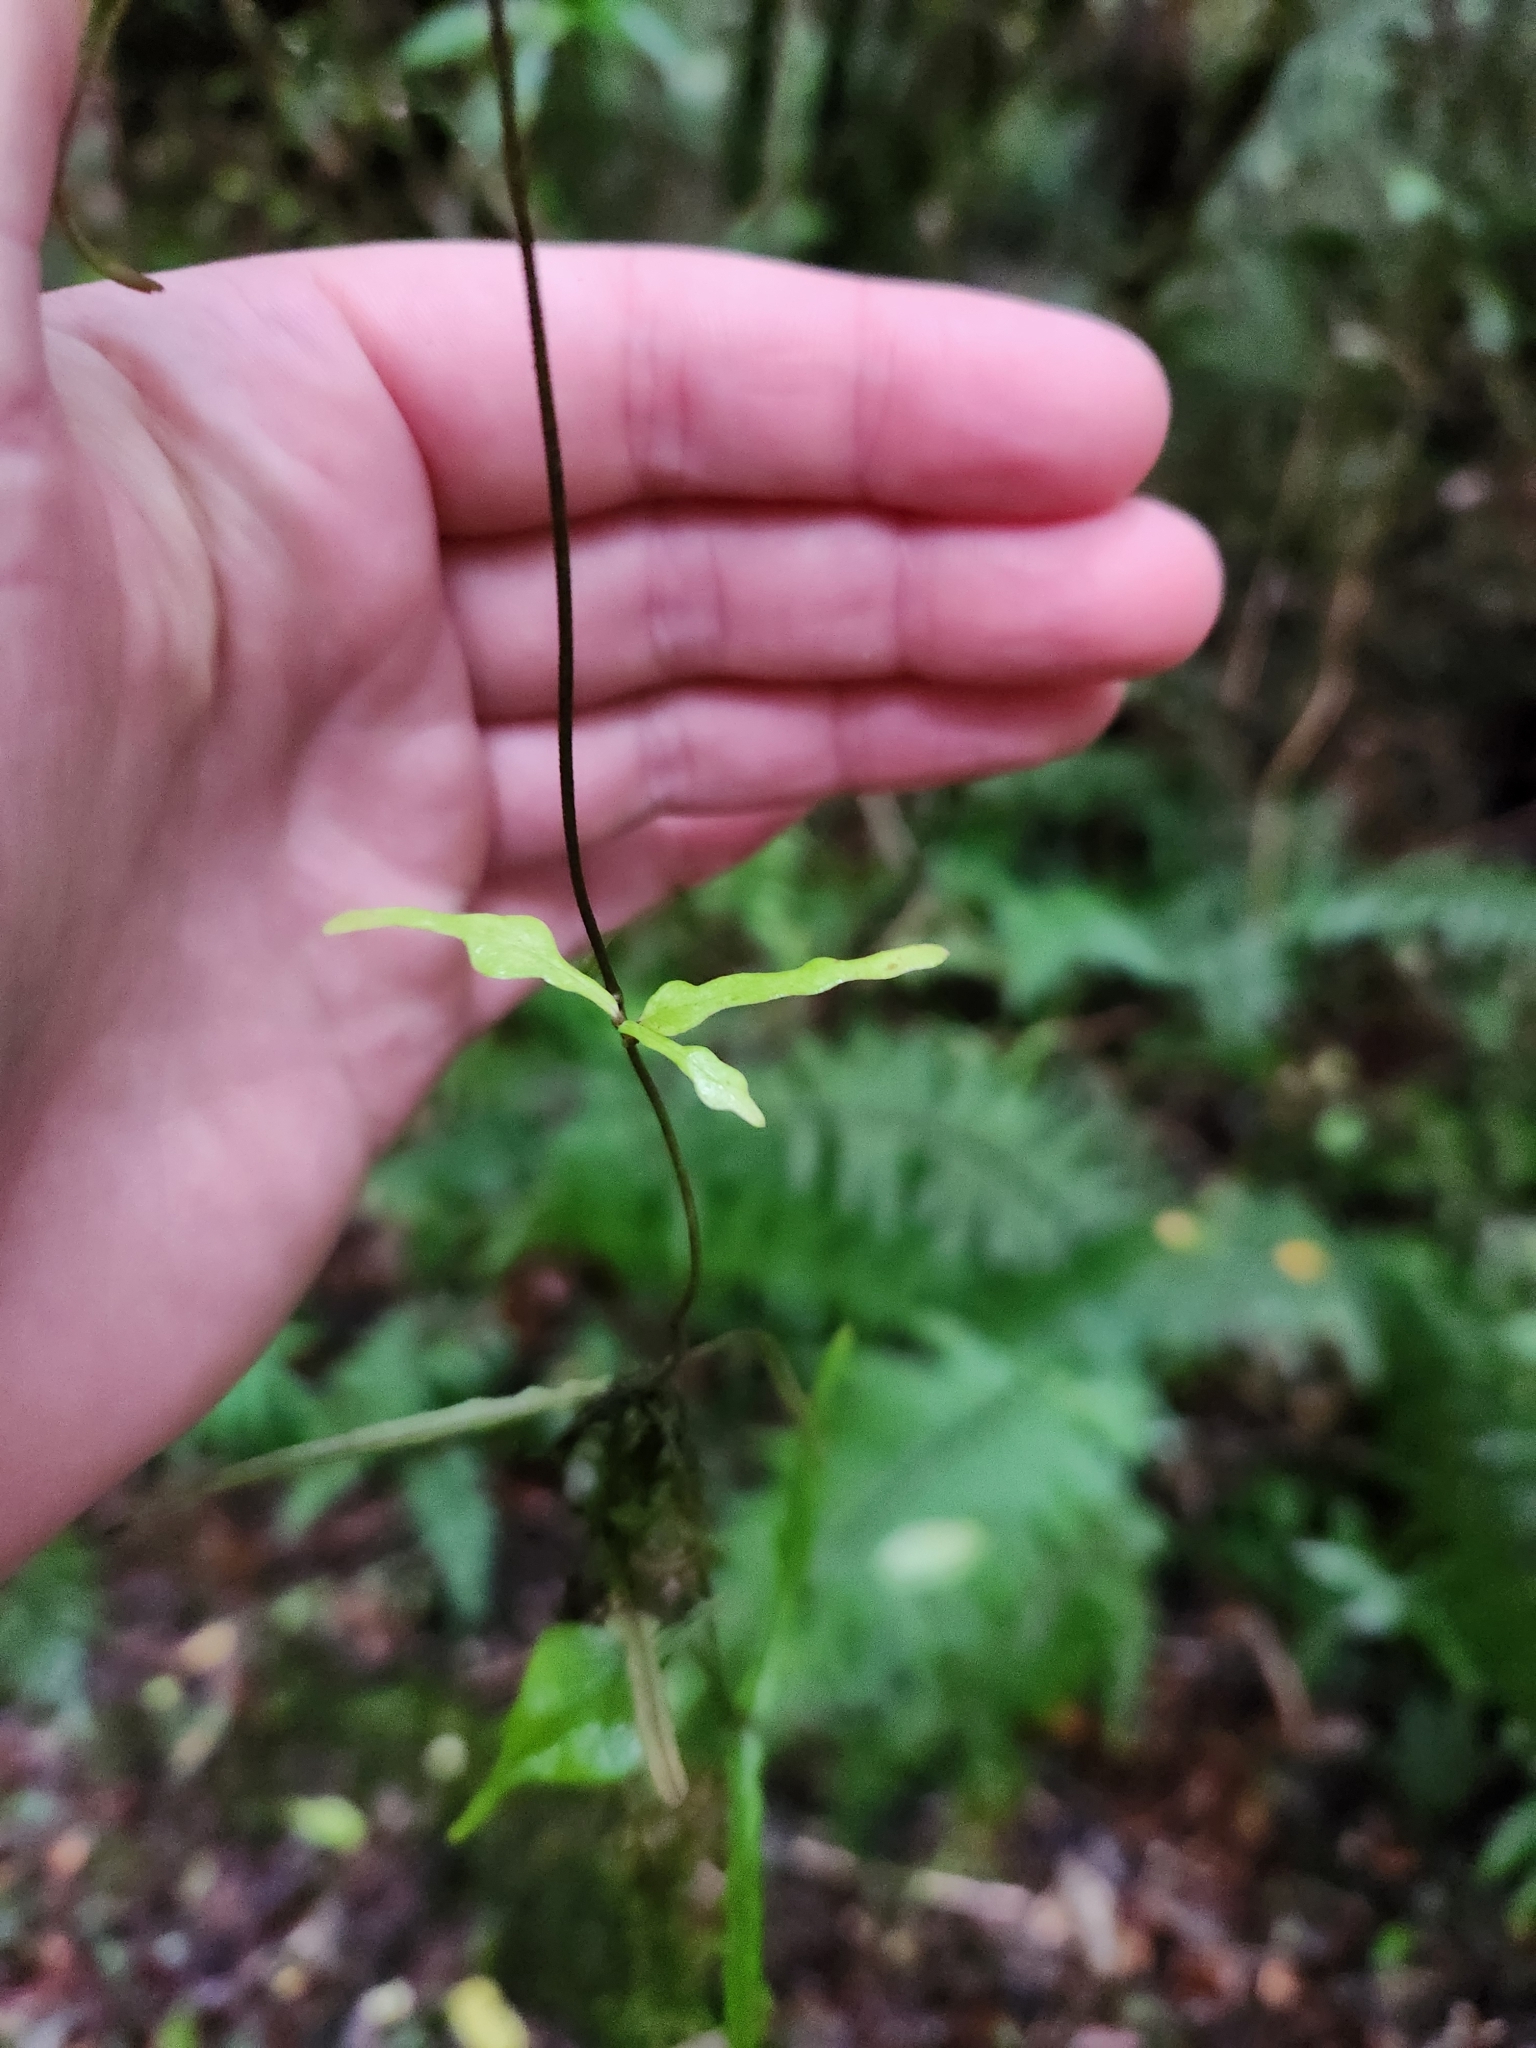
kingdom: Plantae
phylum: Tracheophyta
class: Magnoliopsida
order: Gentianales
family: Apocynaceae
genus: Parsonsia
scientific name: Parsonsia capsularis
